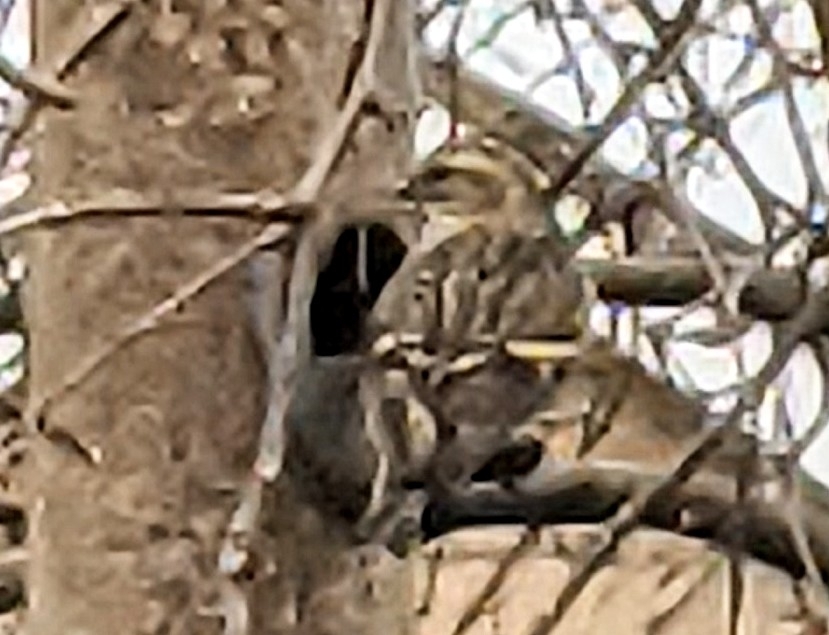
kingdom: Animalia
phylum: Chordata
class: Aves
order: Passeriformes
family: Passeridae
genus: Passer
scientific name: Passer domesticus
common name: House sparrow
